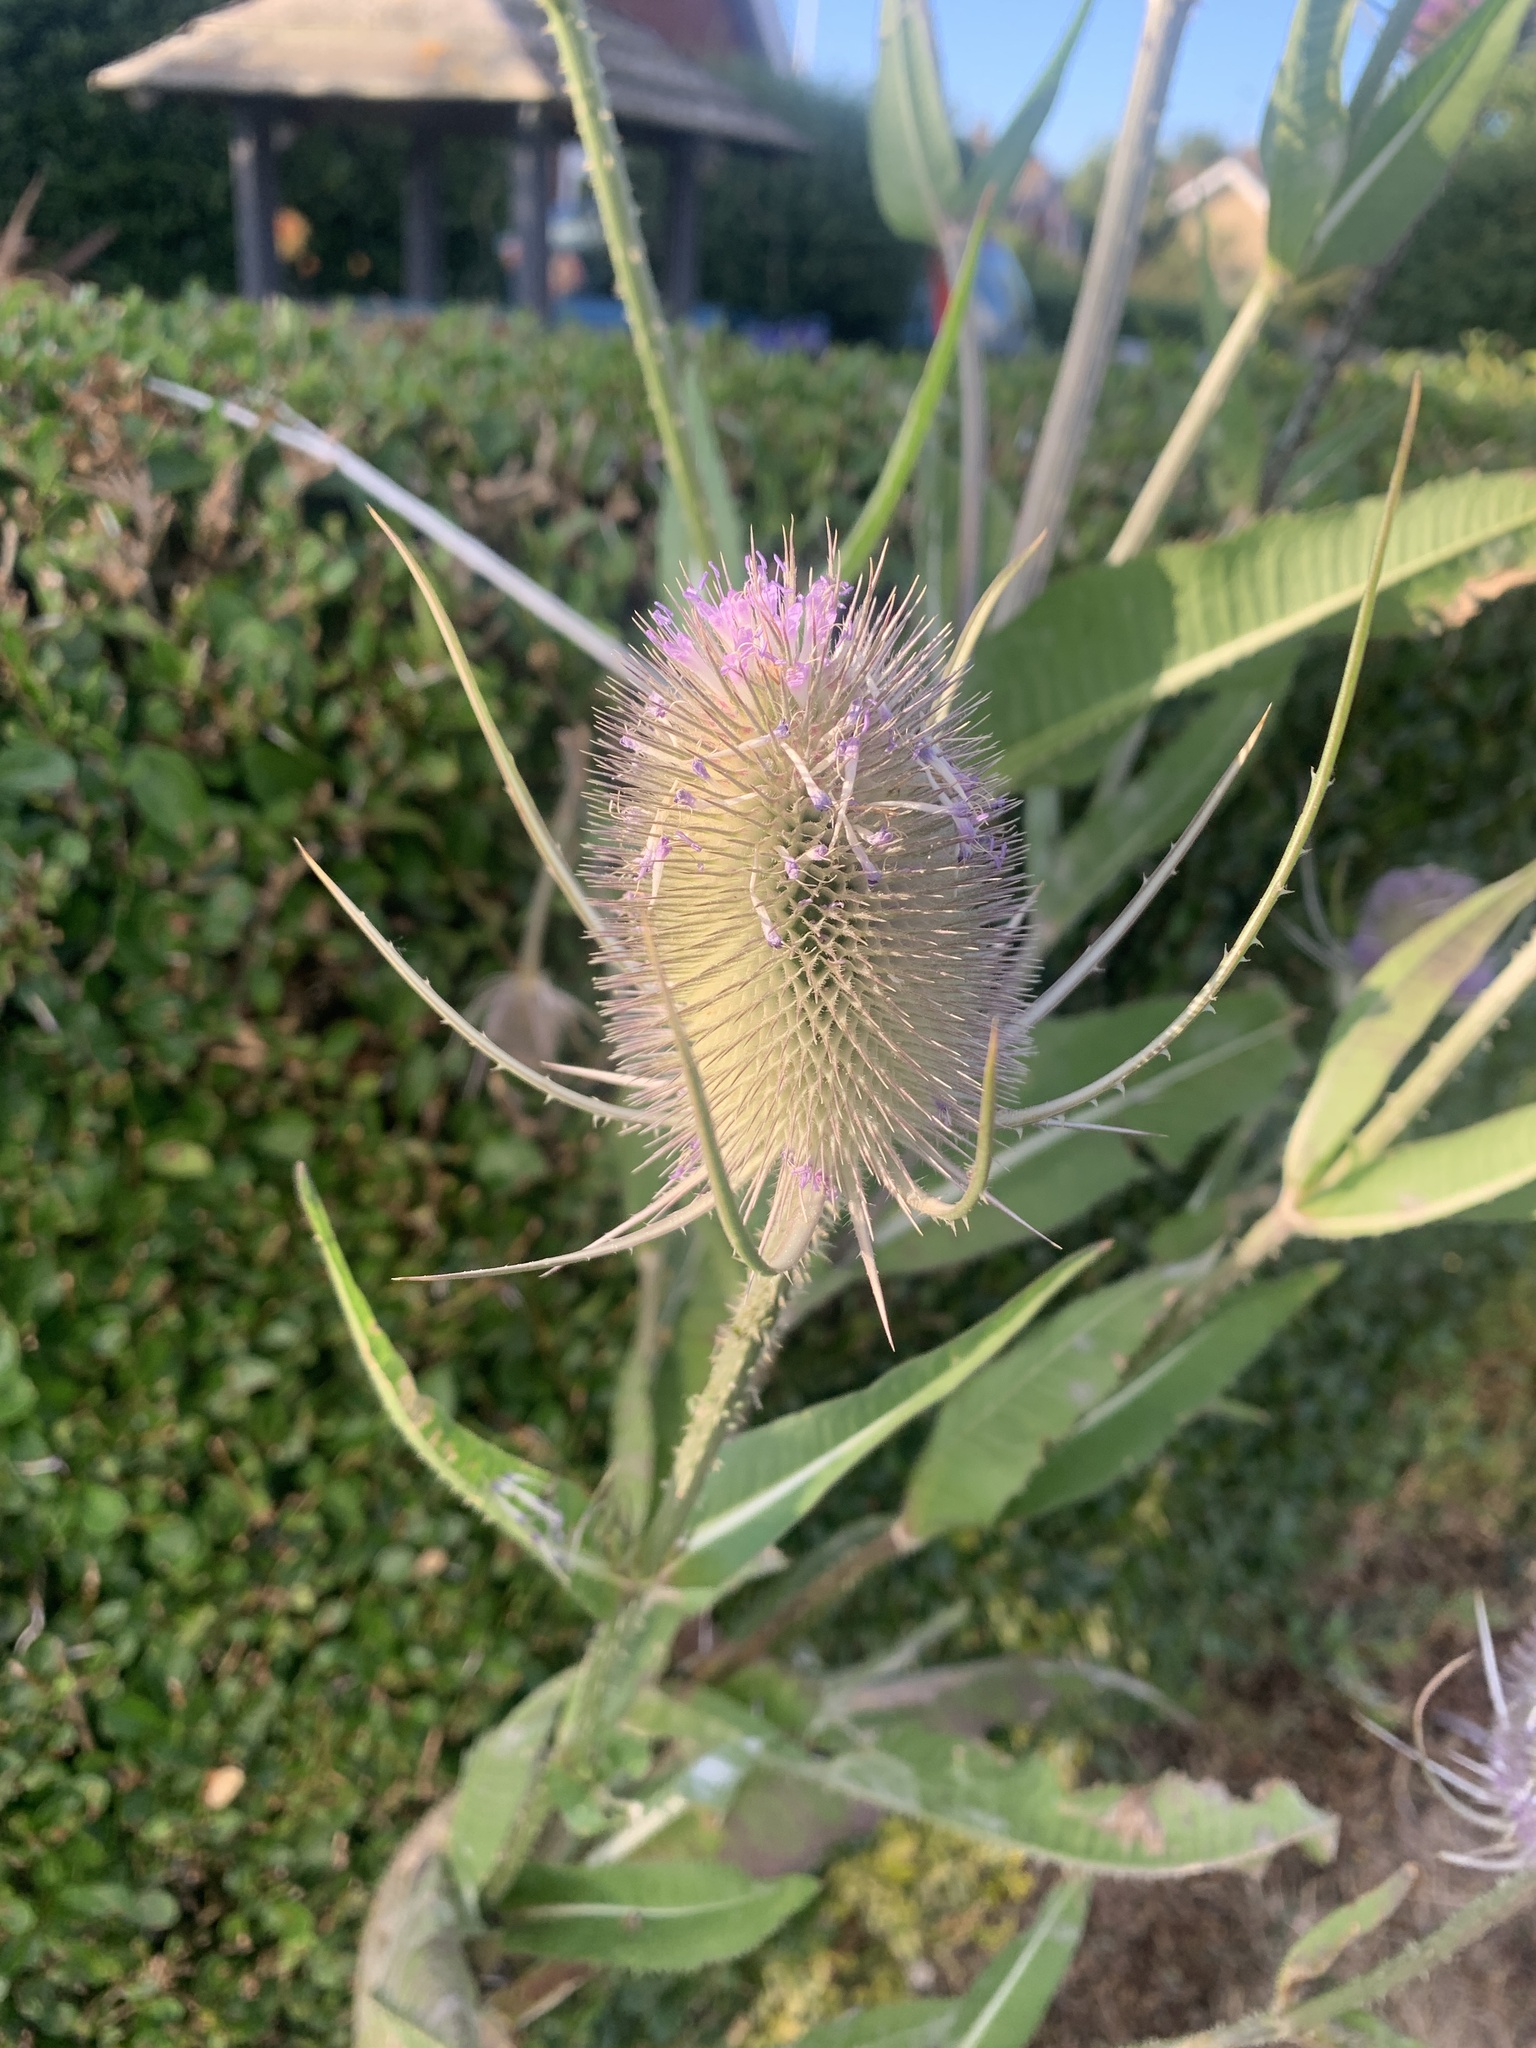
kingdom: Plantae
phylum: Tracheophyta
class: Magnoliopsida
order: Dipsacales
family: Caprifoliaceae
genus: Dipsacus
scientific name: Dipsacus fullonum
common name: Teasel
